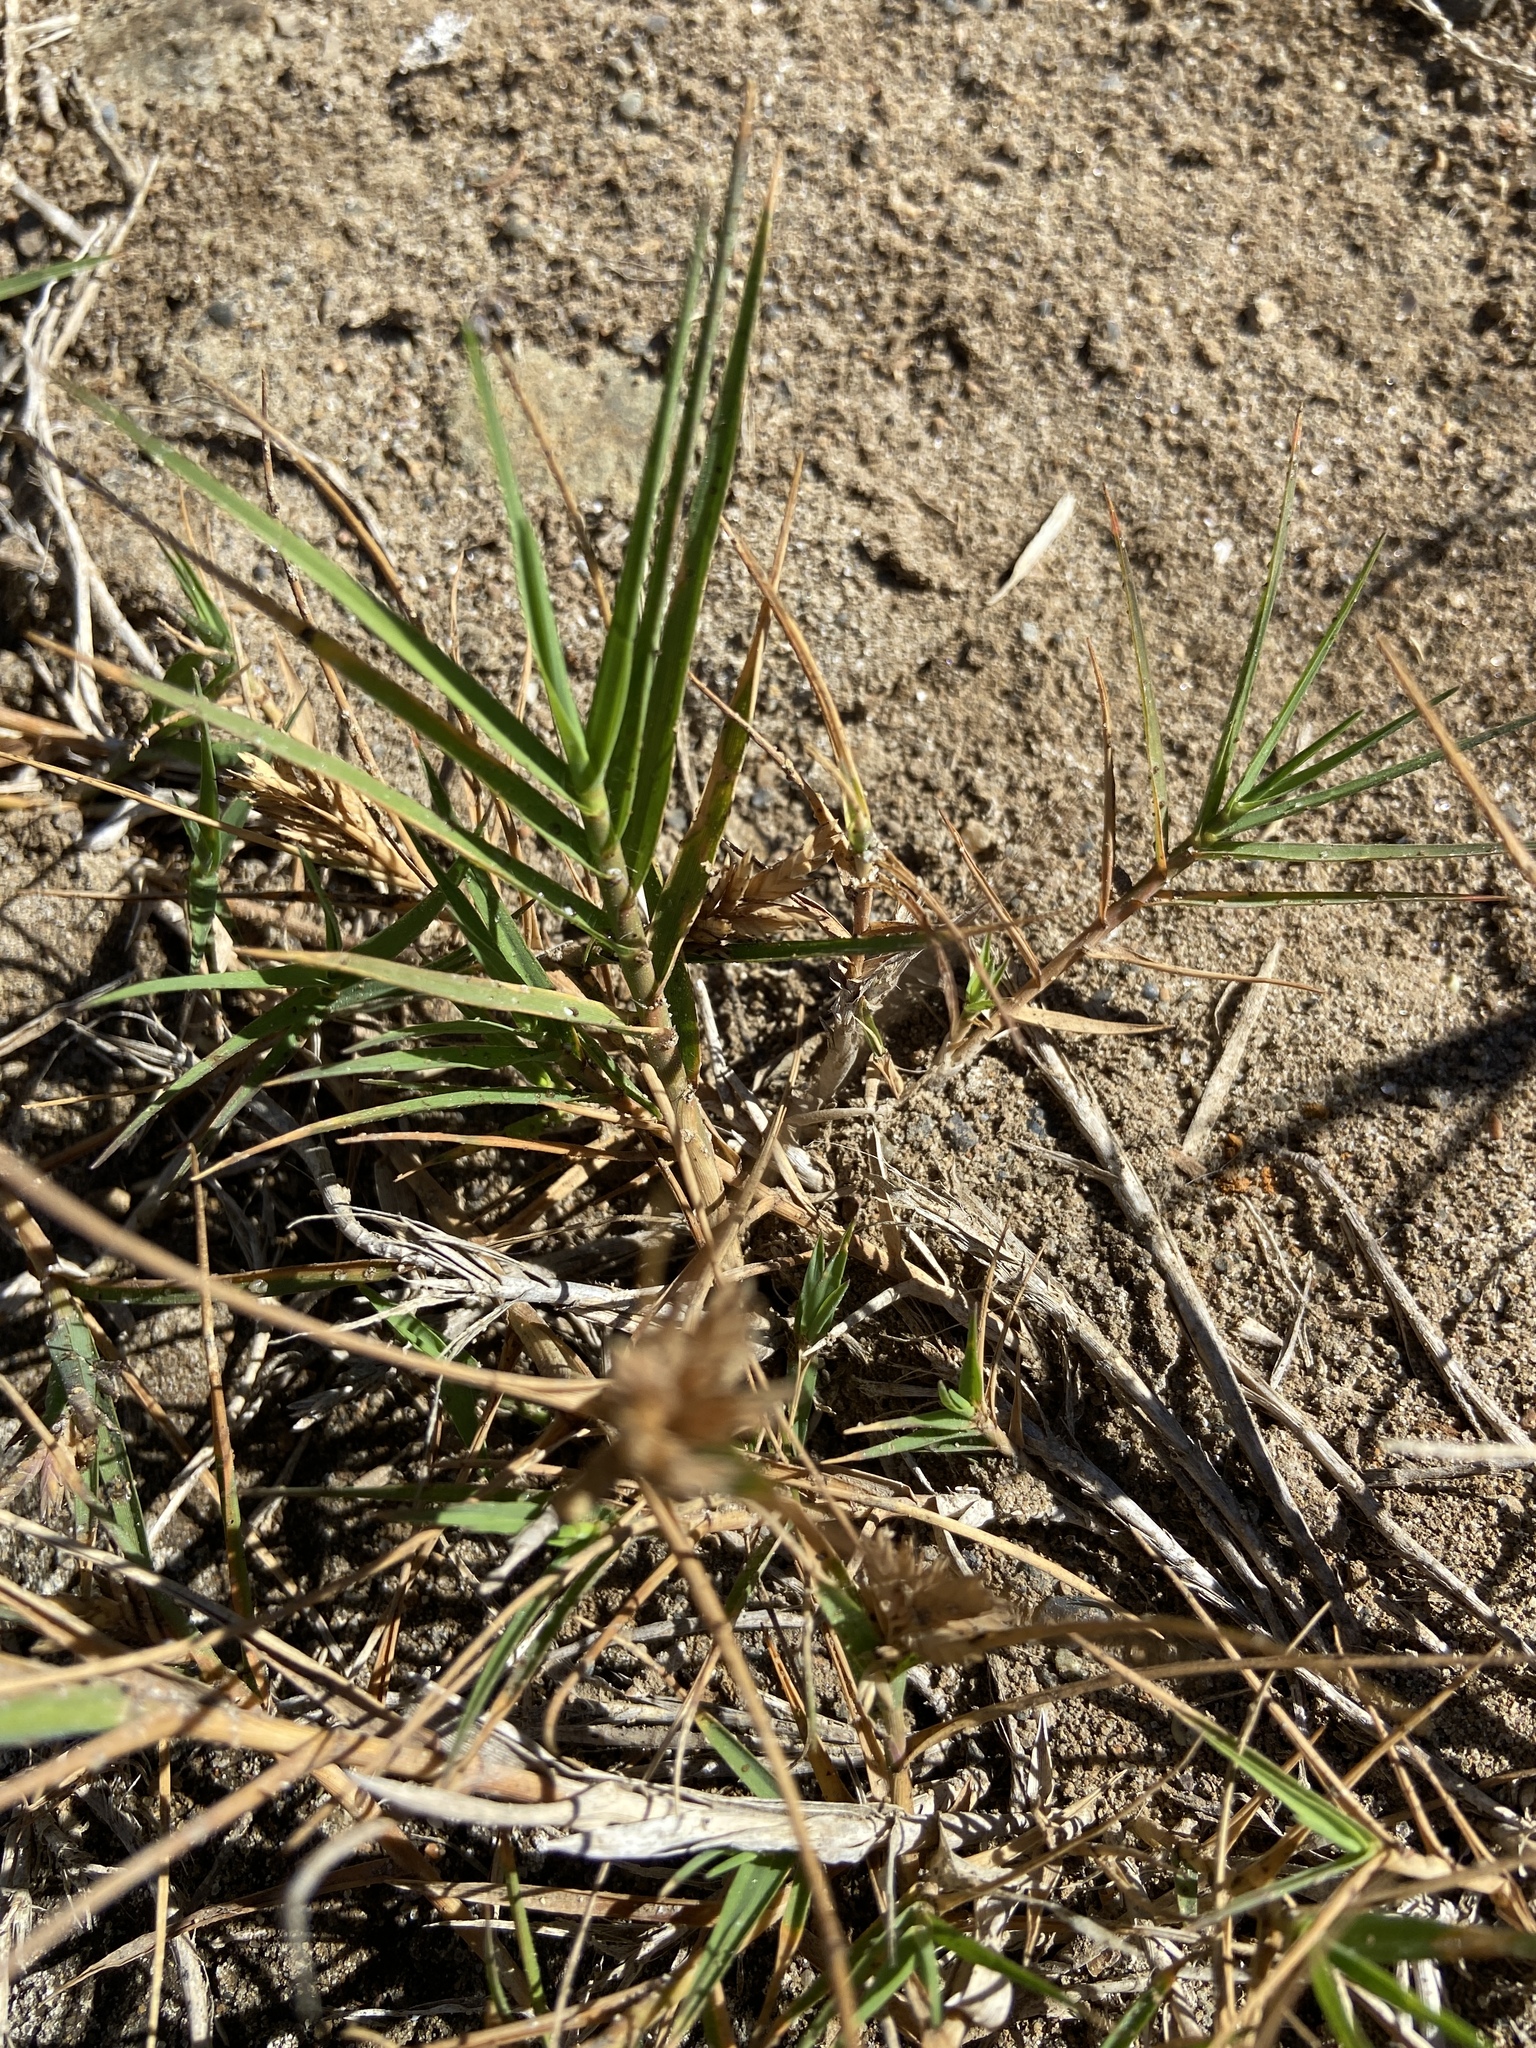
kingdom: Plantae
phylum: Tracheophyta
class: Liliopsida
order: Poales
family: Poaceae
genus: Distichlis
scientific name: Distichlis spicata
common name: Saltgrass
